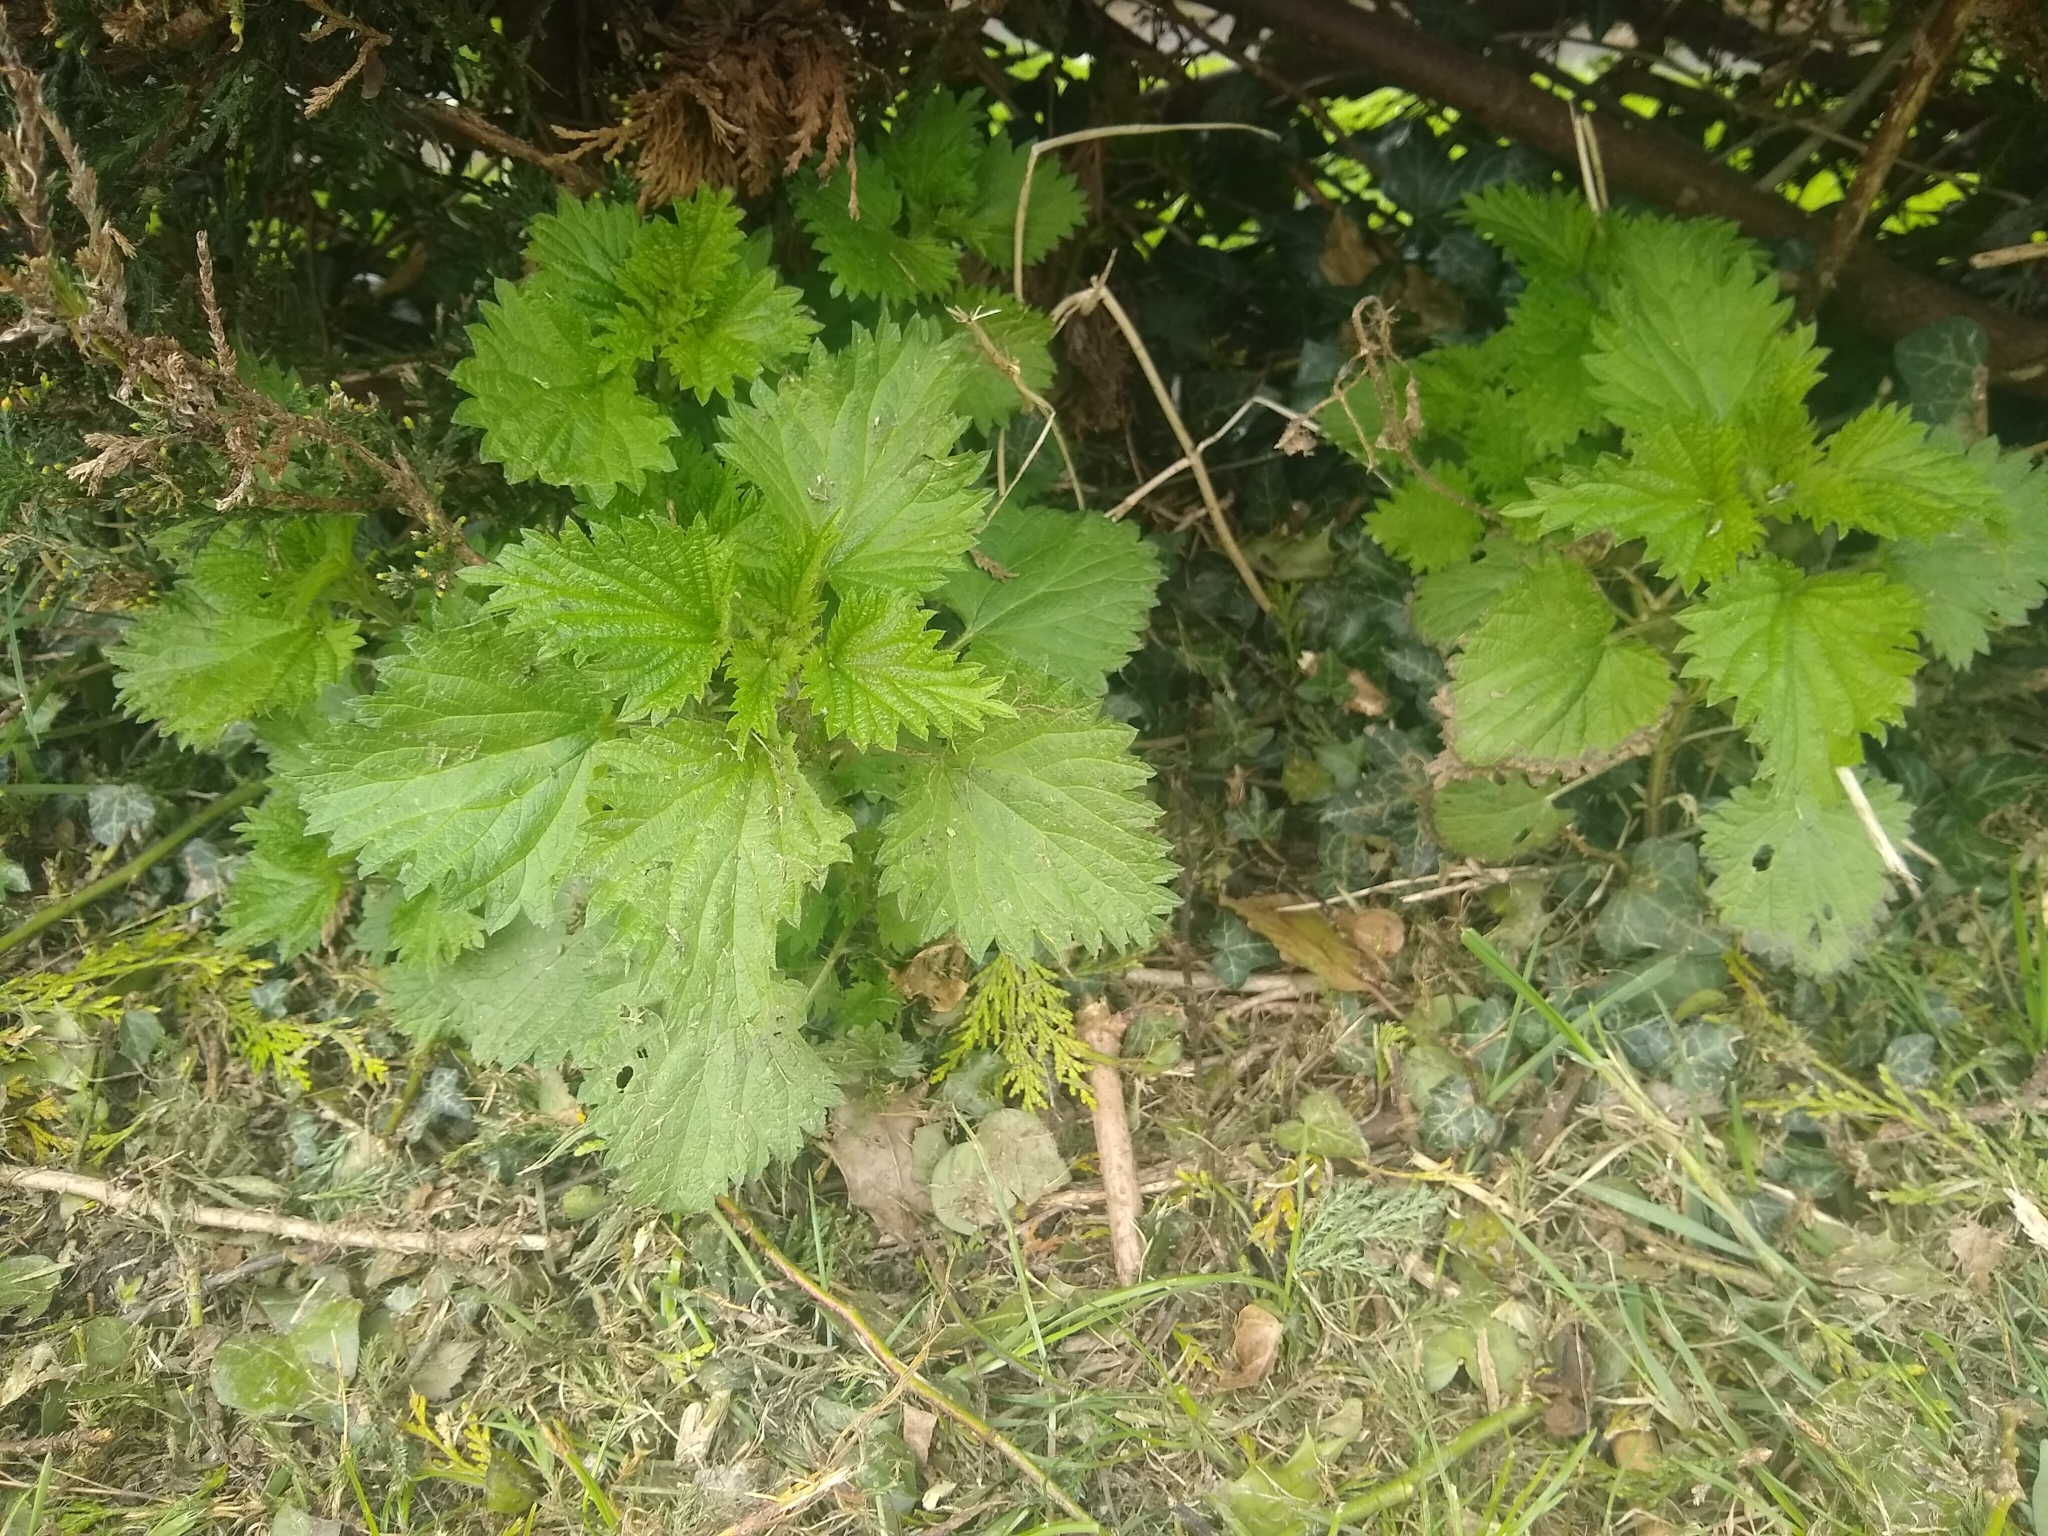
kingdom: Plantae
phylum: Tracheophyta
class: Magnoliopsida
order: Rosales
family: Urticaceae
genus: Urtica
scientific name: Urtica dioica
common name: Common nettle
